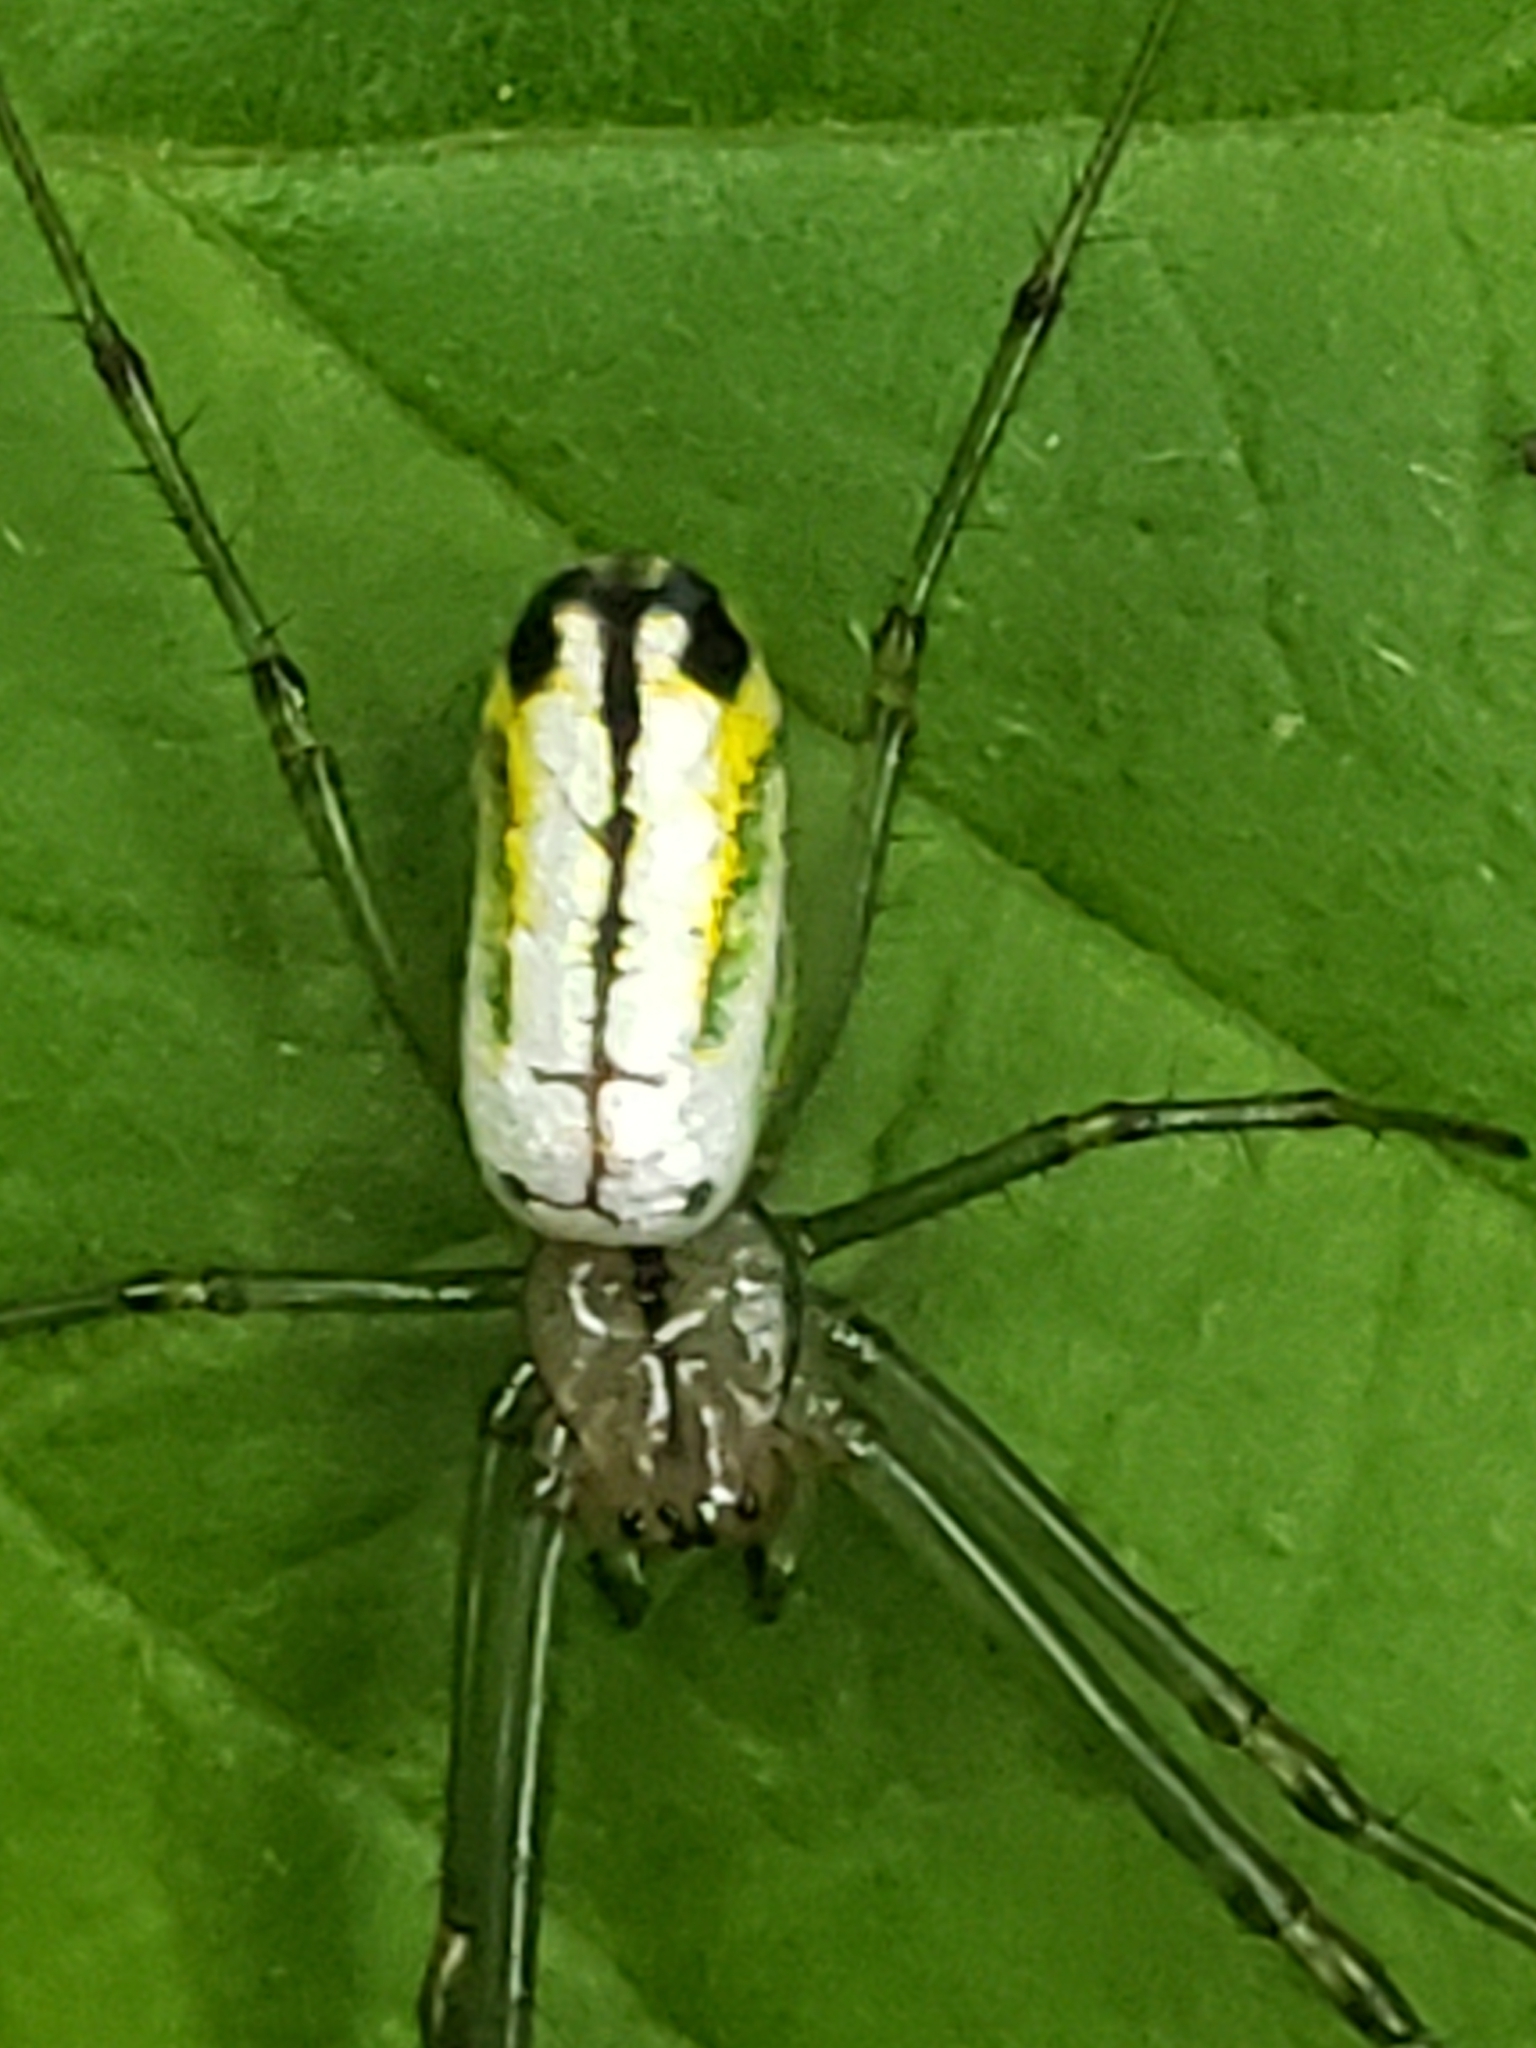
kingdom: Animalia
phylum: Arthropoda
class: Arachnida
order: Araneae
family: Tetragnathidae
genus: Leucauge
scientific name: Leucauge venusta
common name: Longjawed orb weavers
